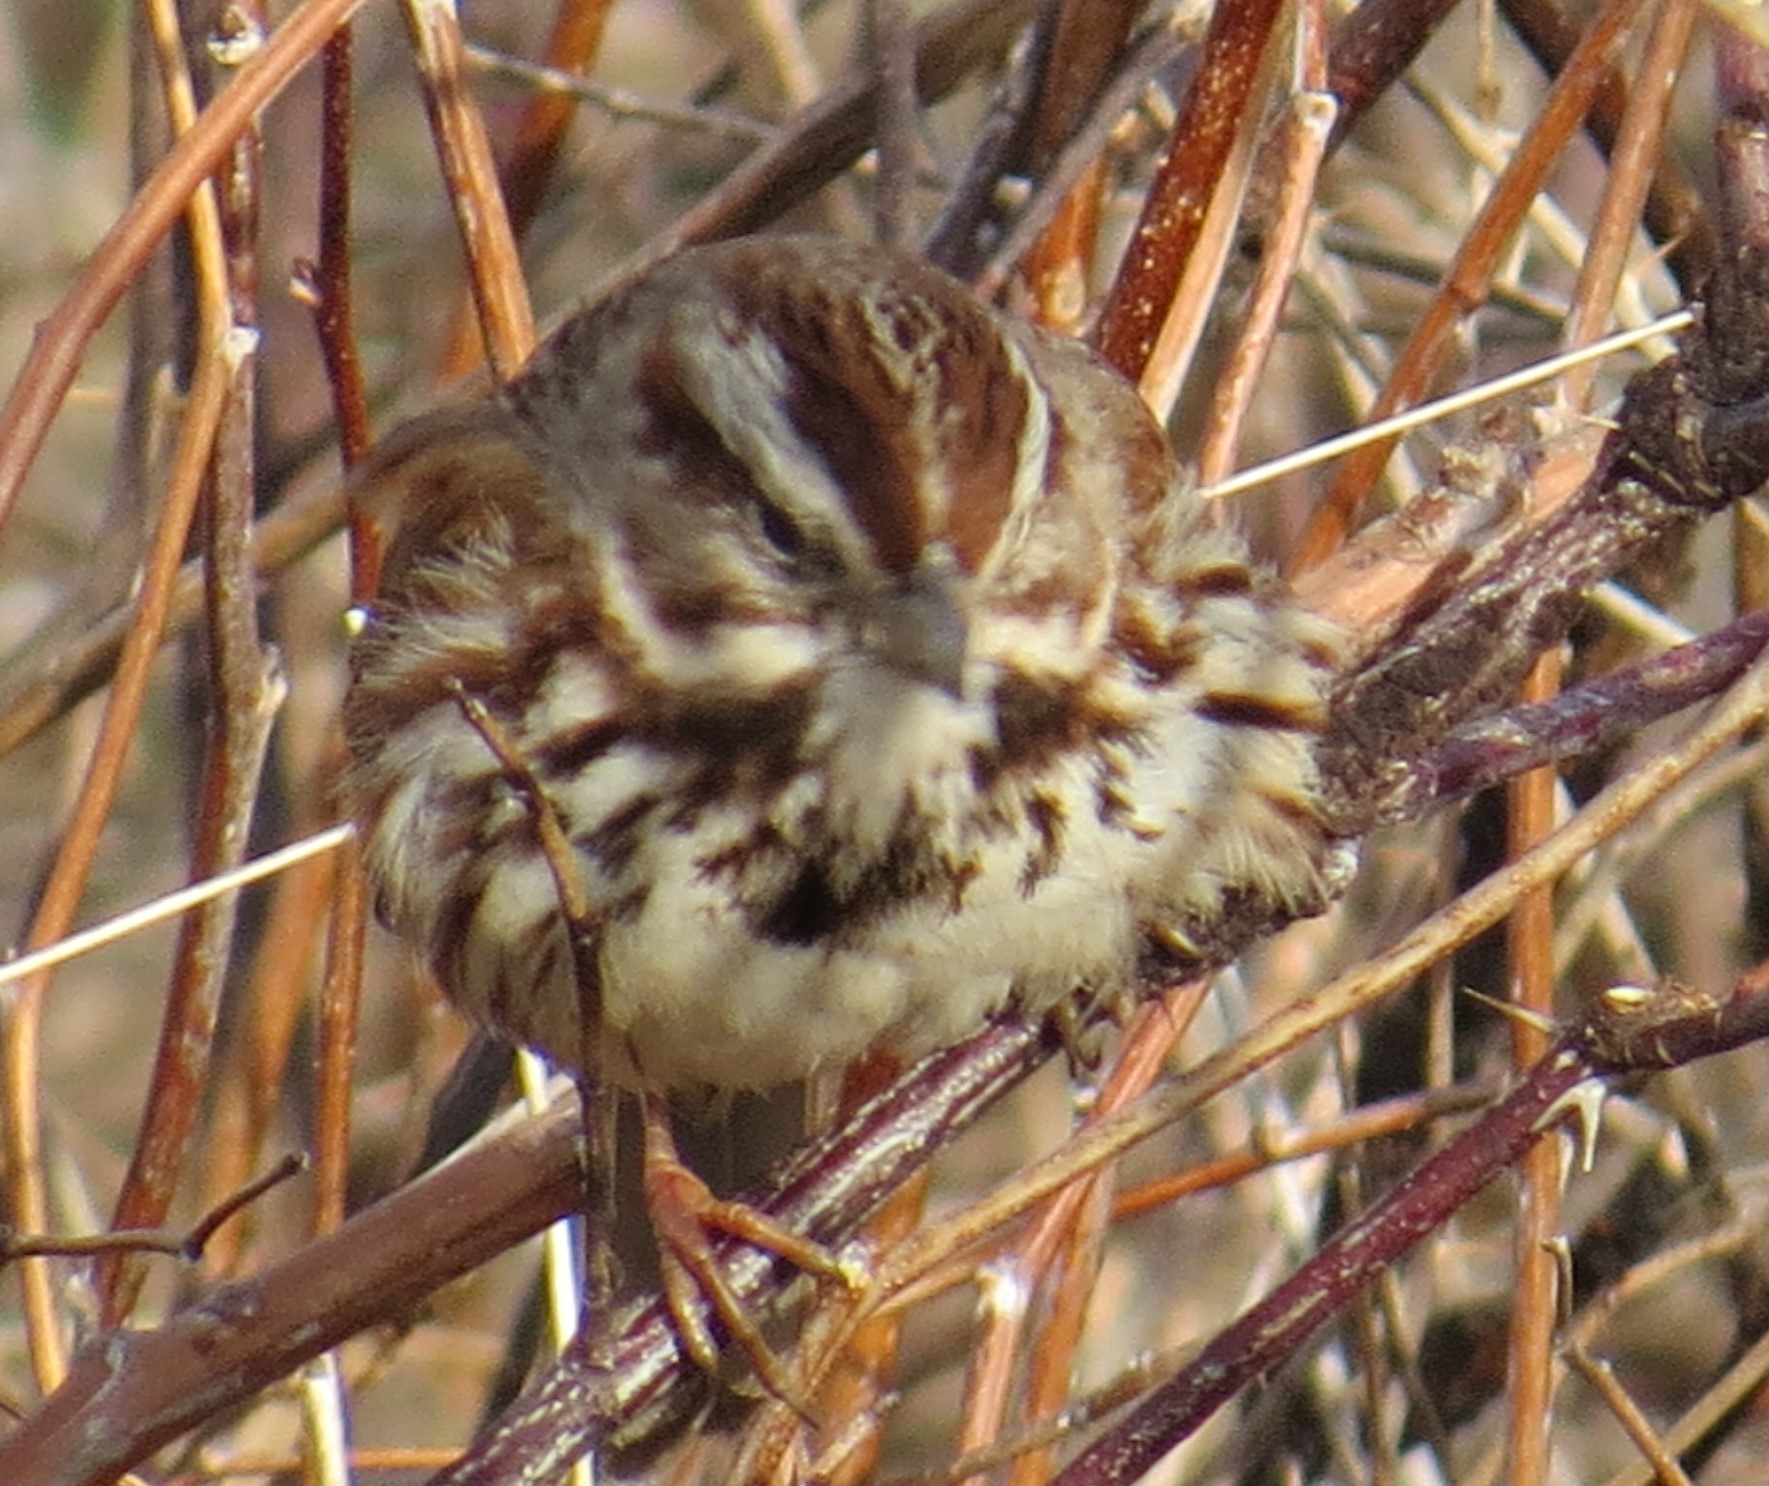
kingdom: Animalia
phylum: Chordata
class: Aves
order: Passeriformes
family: Passerellidae
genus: Melospiza
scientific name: Melospiza melodia
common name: Song sparrow
